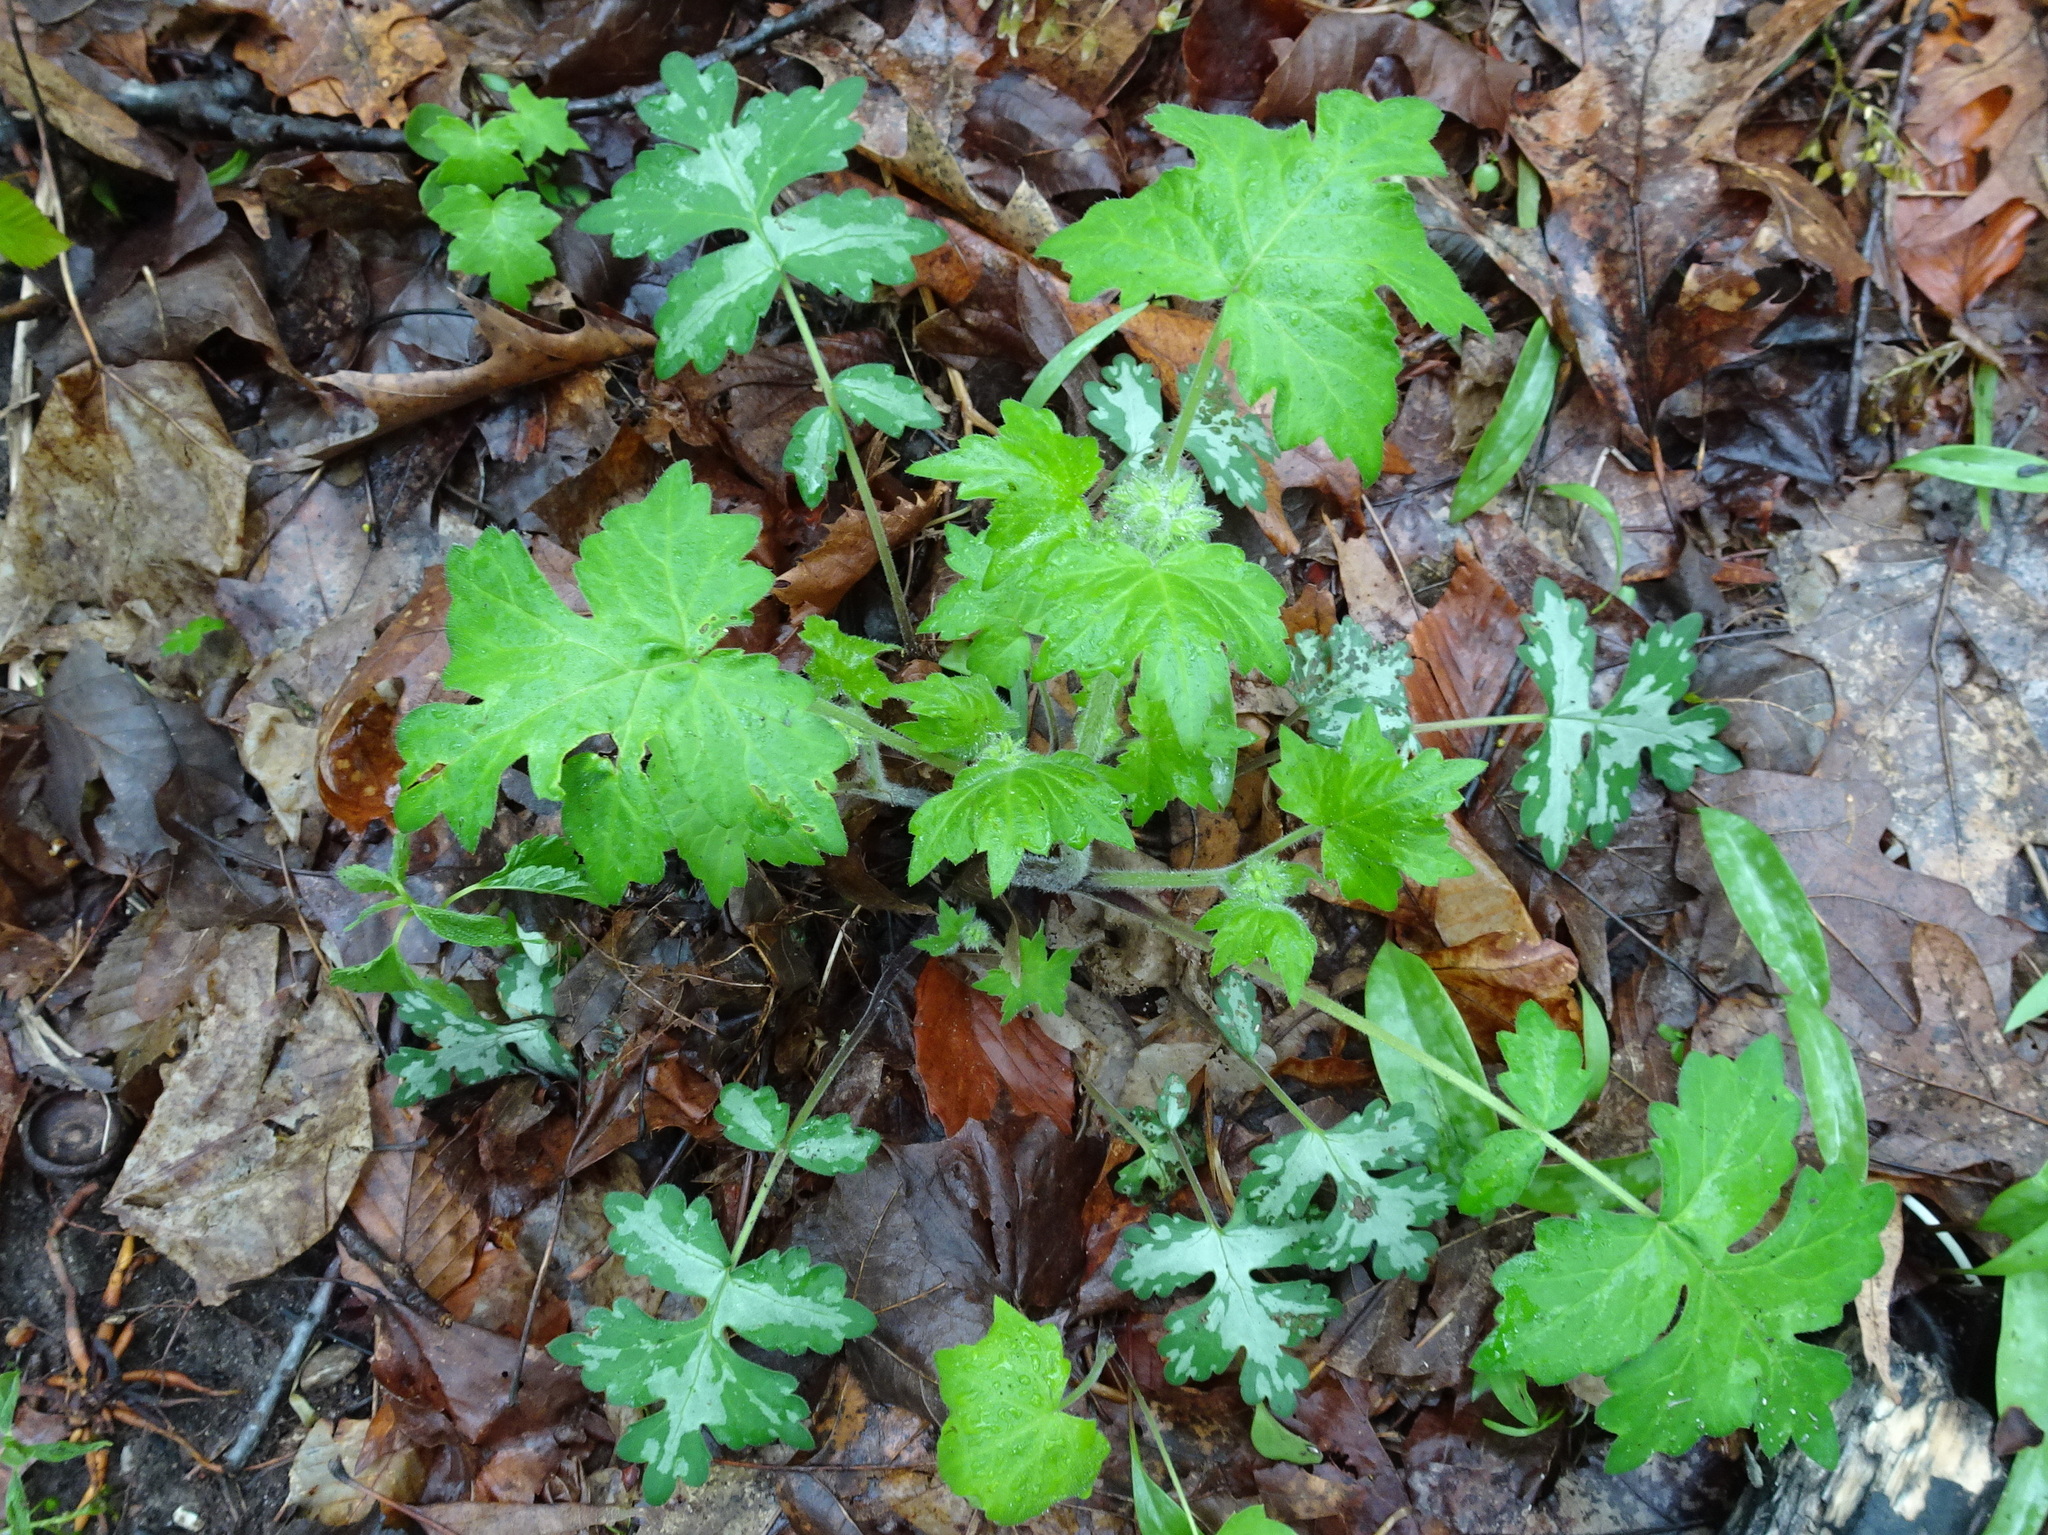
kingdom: Plantae
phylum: Tracheophyta
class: Magnoliopsida
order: Boraginales
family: Hydrophyllaceae
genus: Hydrophyllum
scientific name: Hydrophyllum appendiculatum
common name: Appendaged waterleaf
